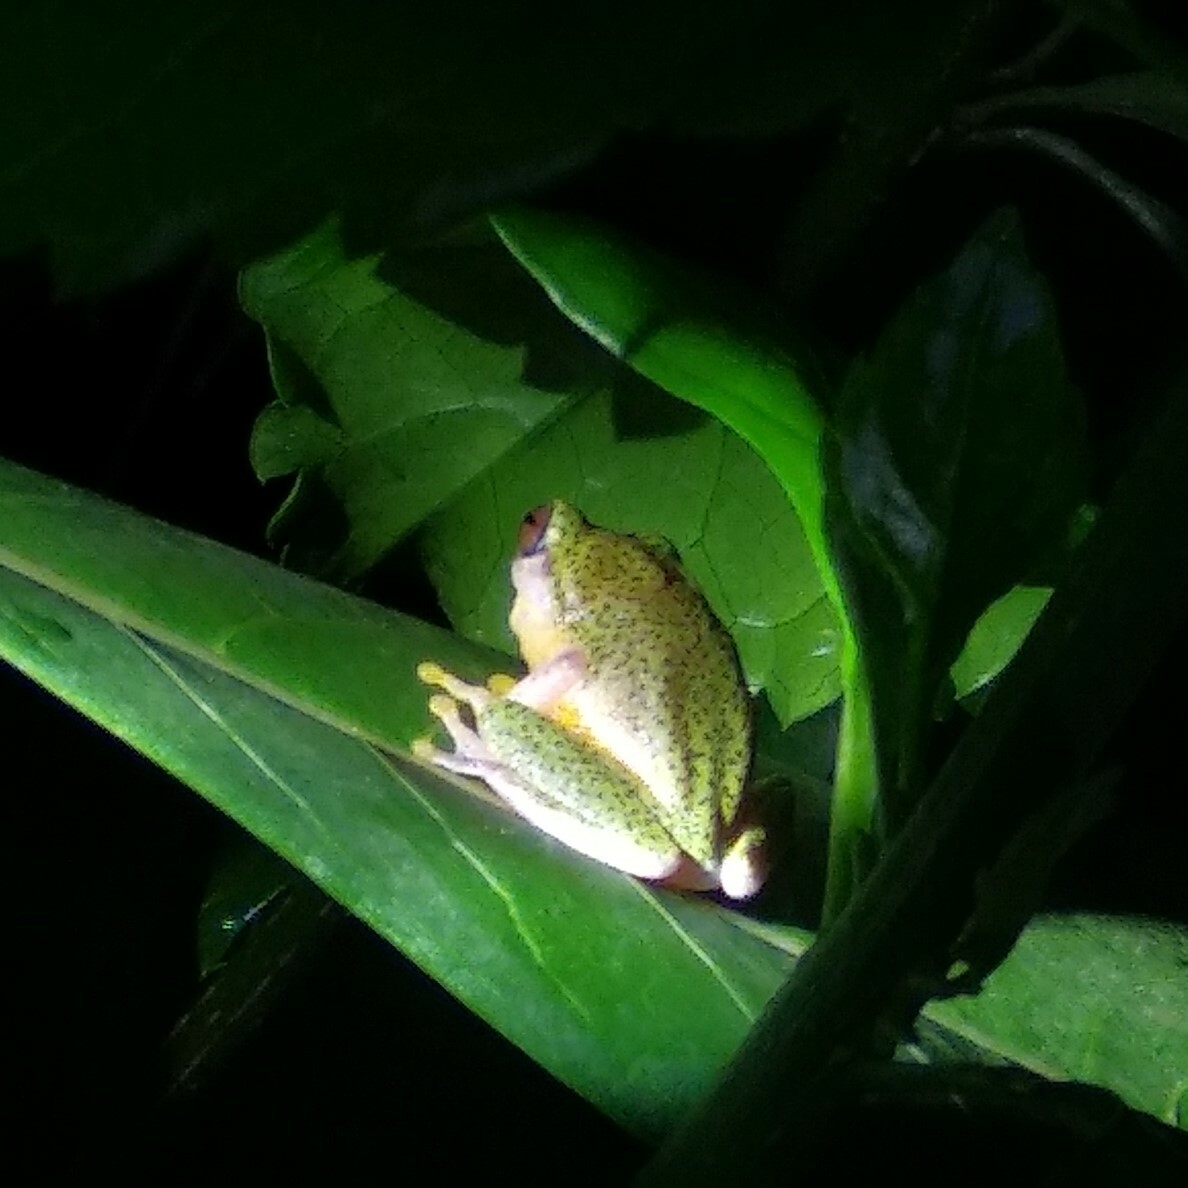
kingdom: Animalia
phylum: Chordata
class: Amphibia
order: Anura
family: Rhacophoridae
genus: Rhacophorus
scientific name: Rhacophorus malabaricus
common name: Malabar gliding frog
